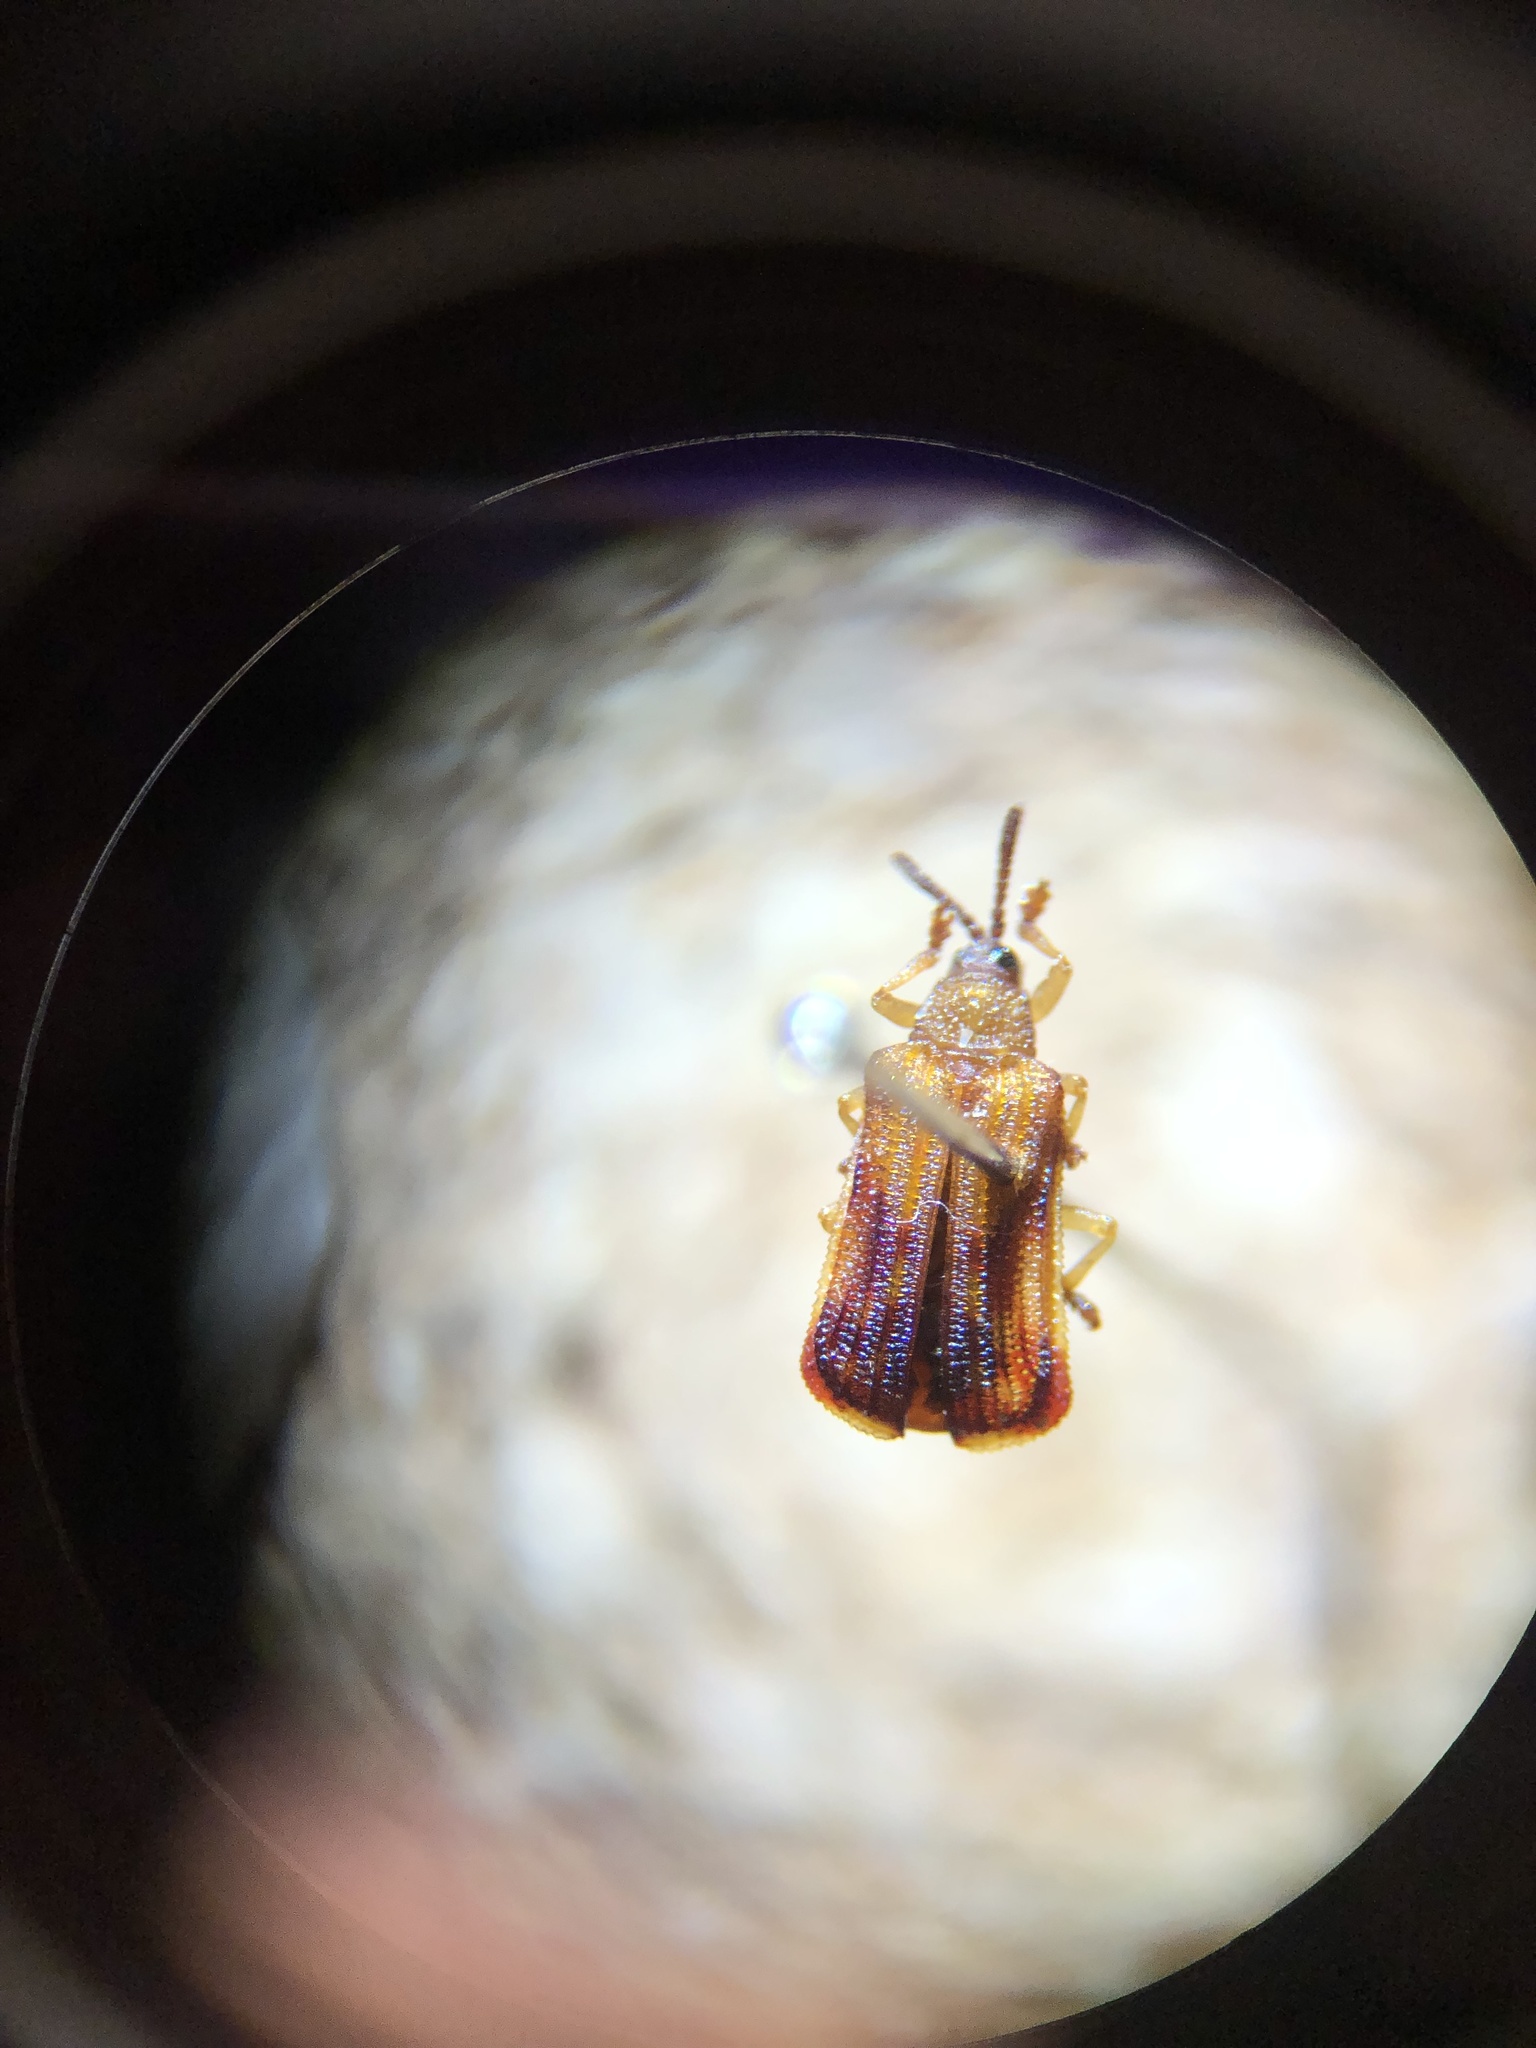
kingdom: Animalia
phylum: Arthropoda
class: Insecta
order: Coleoptera
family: Chrysomelidae
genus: Baliosus
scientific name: Baliosus nervosus
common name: Basswood leaf miner
